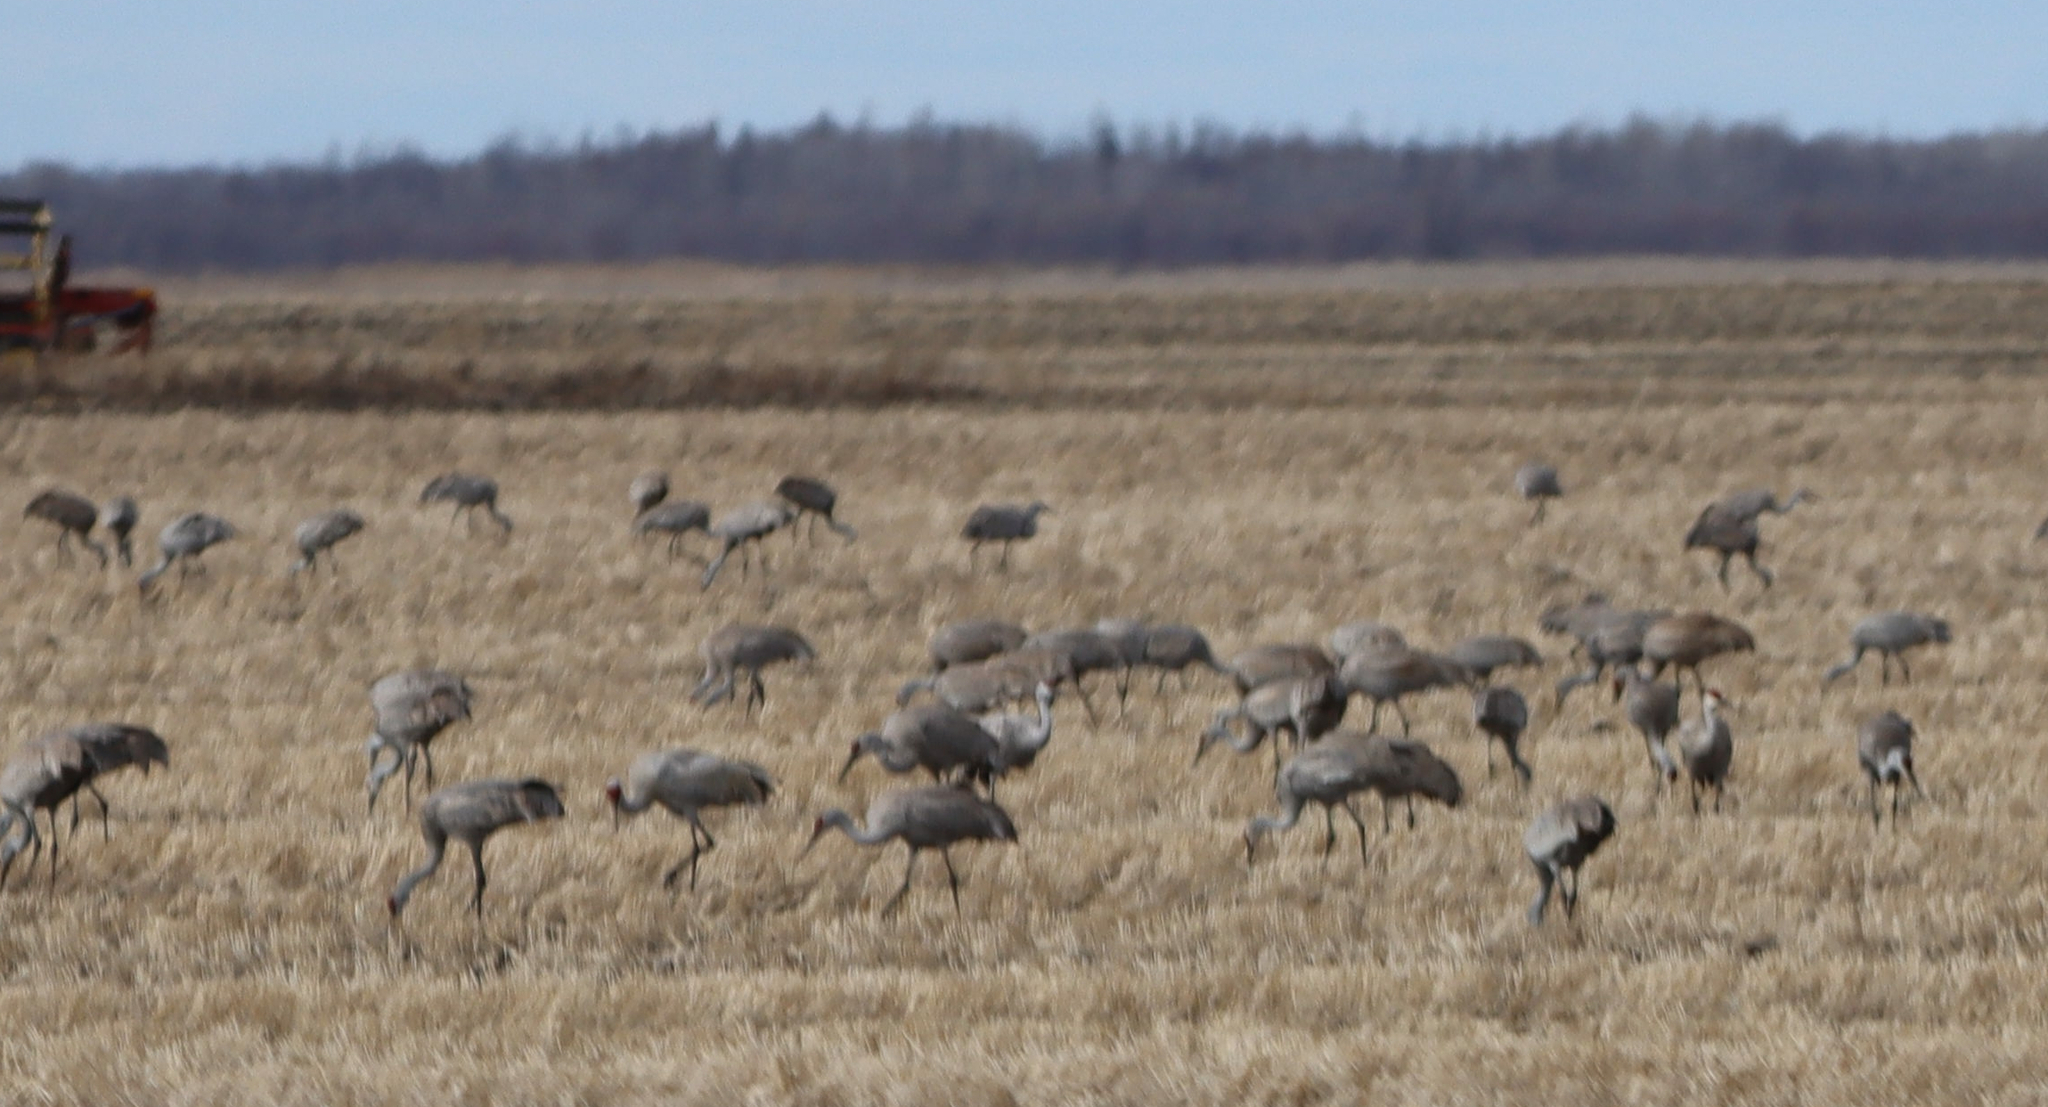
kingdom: Animalia
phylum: Chordata
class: Aves
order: Gruiformes
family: Gruidae
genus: Grus
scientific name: Grus canadensis
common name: Sandhill crane
